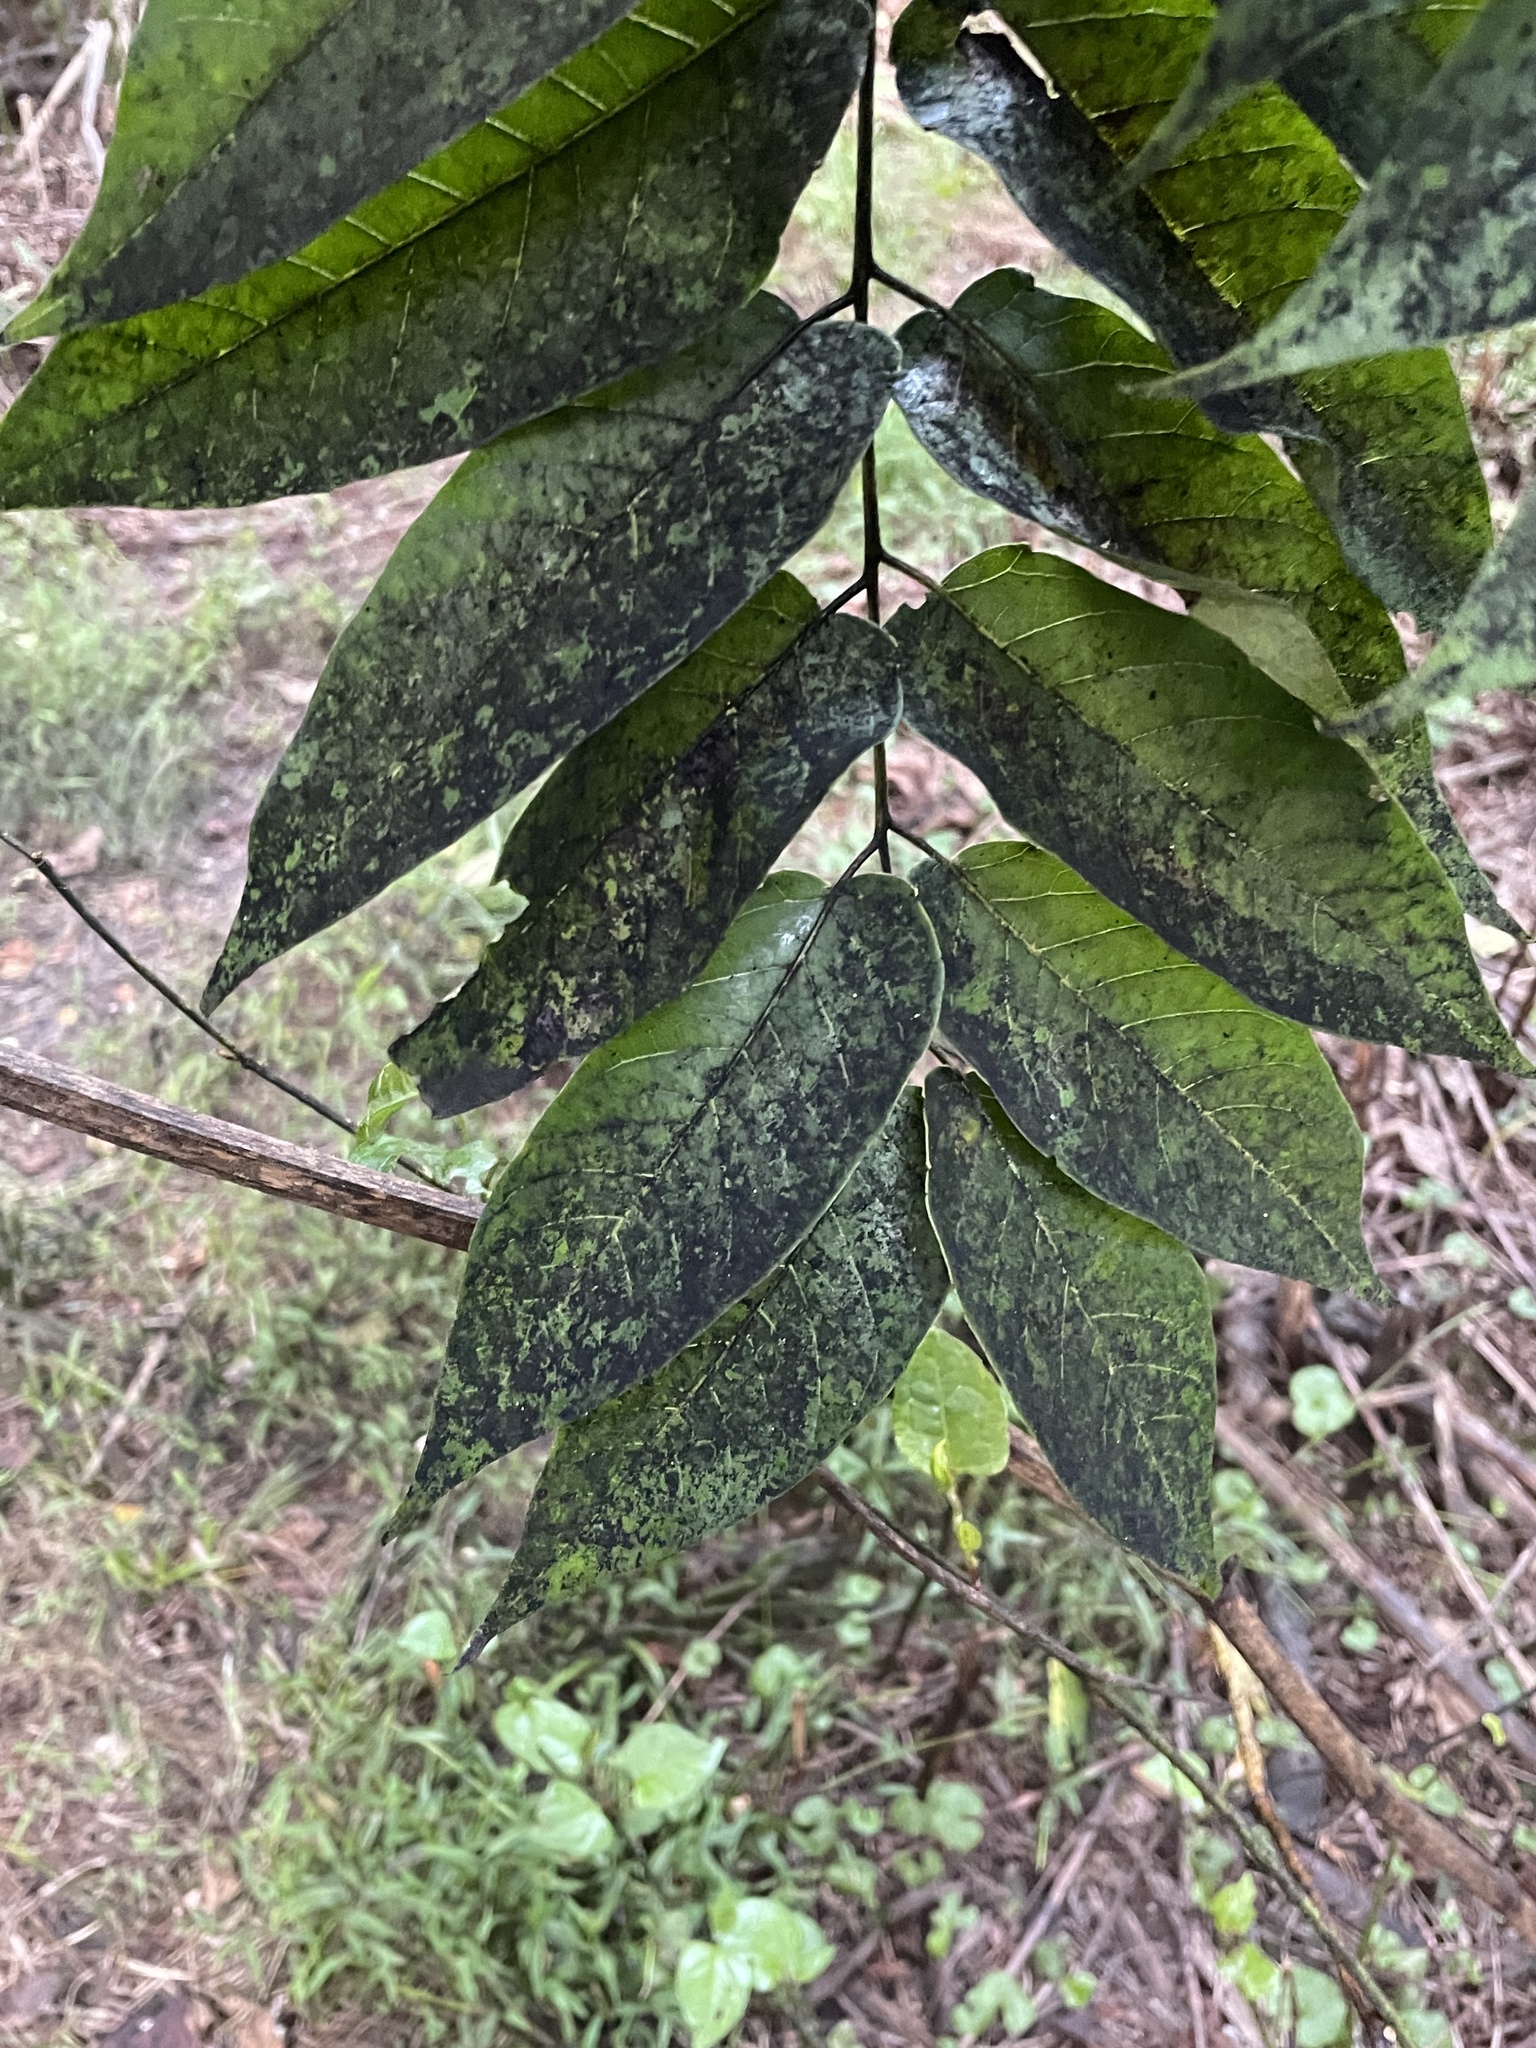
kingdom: Plantae
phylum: Tracheophyta
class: Magnoliopsida
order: Sapindales
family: Simaroubaceae
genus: Ailanthus
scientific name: Ailanthus altissima
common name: Tree-of-heaven
